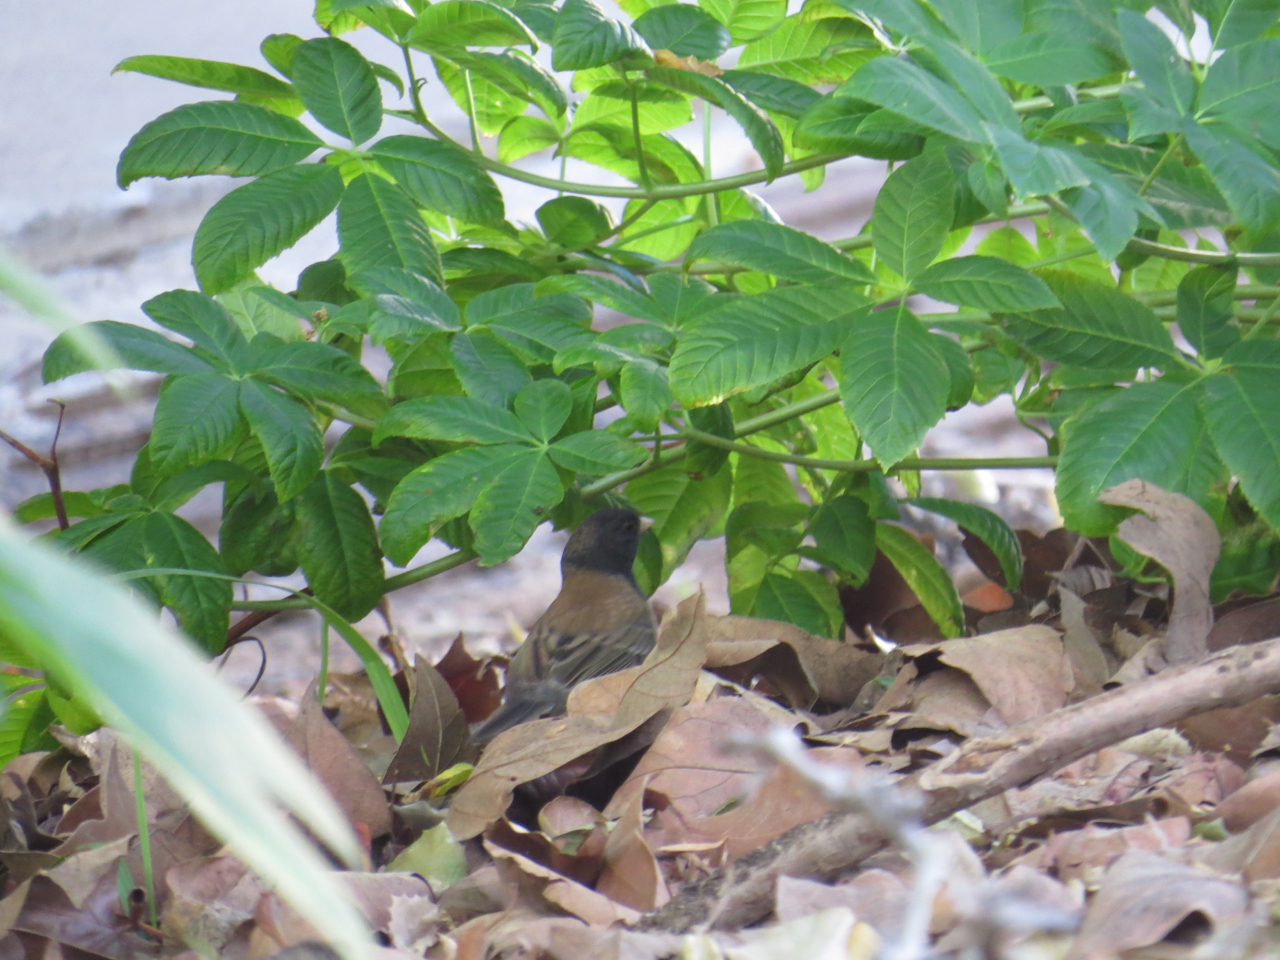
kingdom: Animalia
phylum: Chordata
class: Aves
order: Passeriformes
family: Passerellidae
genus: Junco
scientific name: Junco hyemalis
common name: Dark-eyed junco
